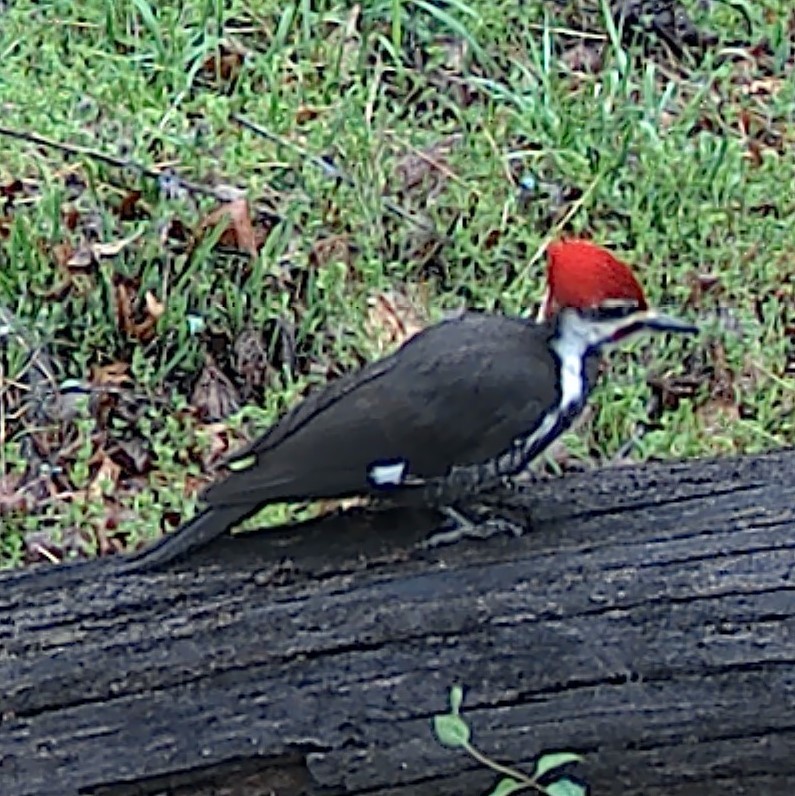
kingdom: Animalia
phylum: Chordata
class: Aves
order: Piciformes
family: Picidae
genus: Dryocopus
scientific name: Dryocopus pileatus
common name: Pileated woodpecker
